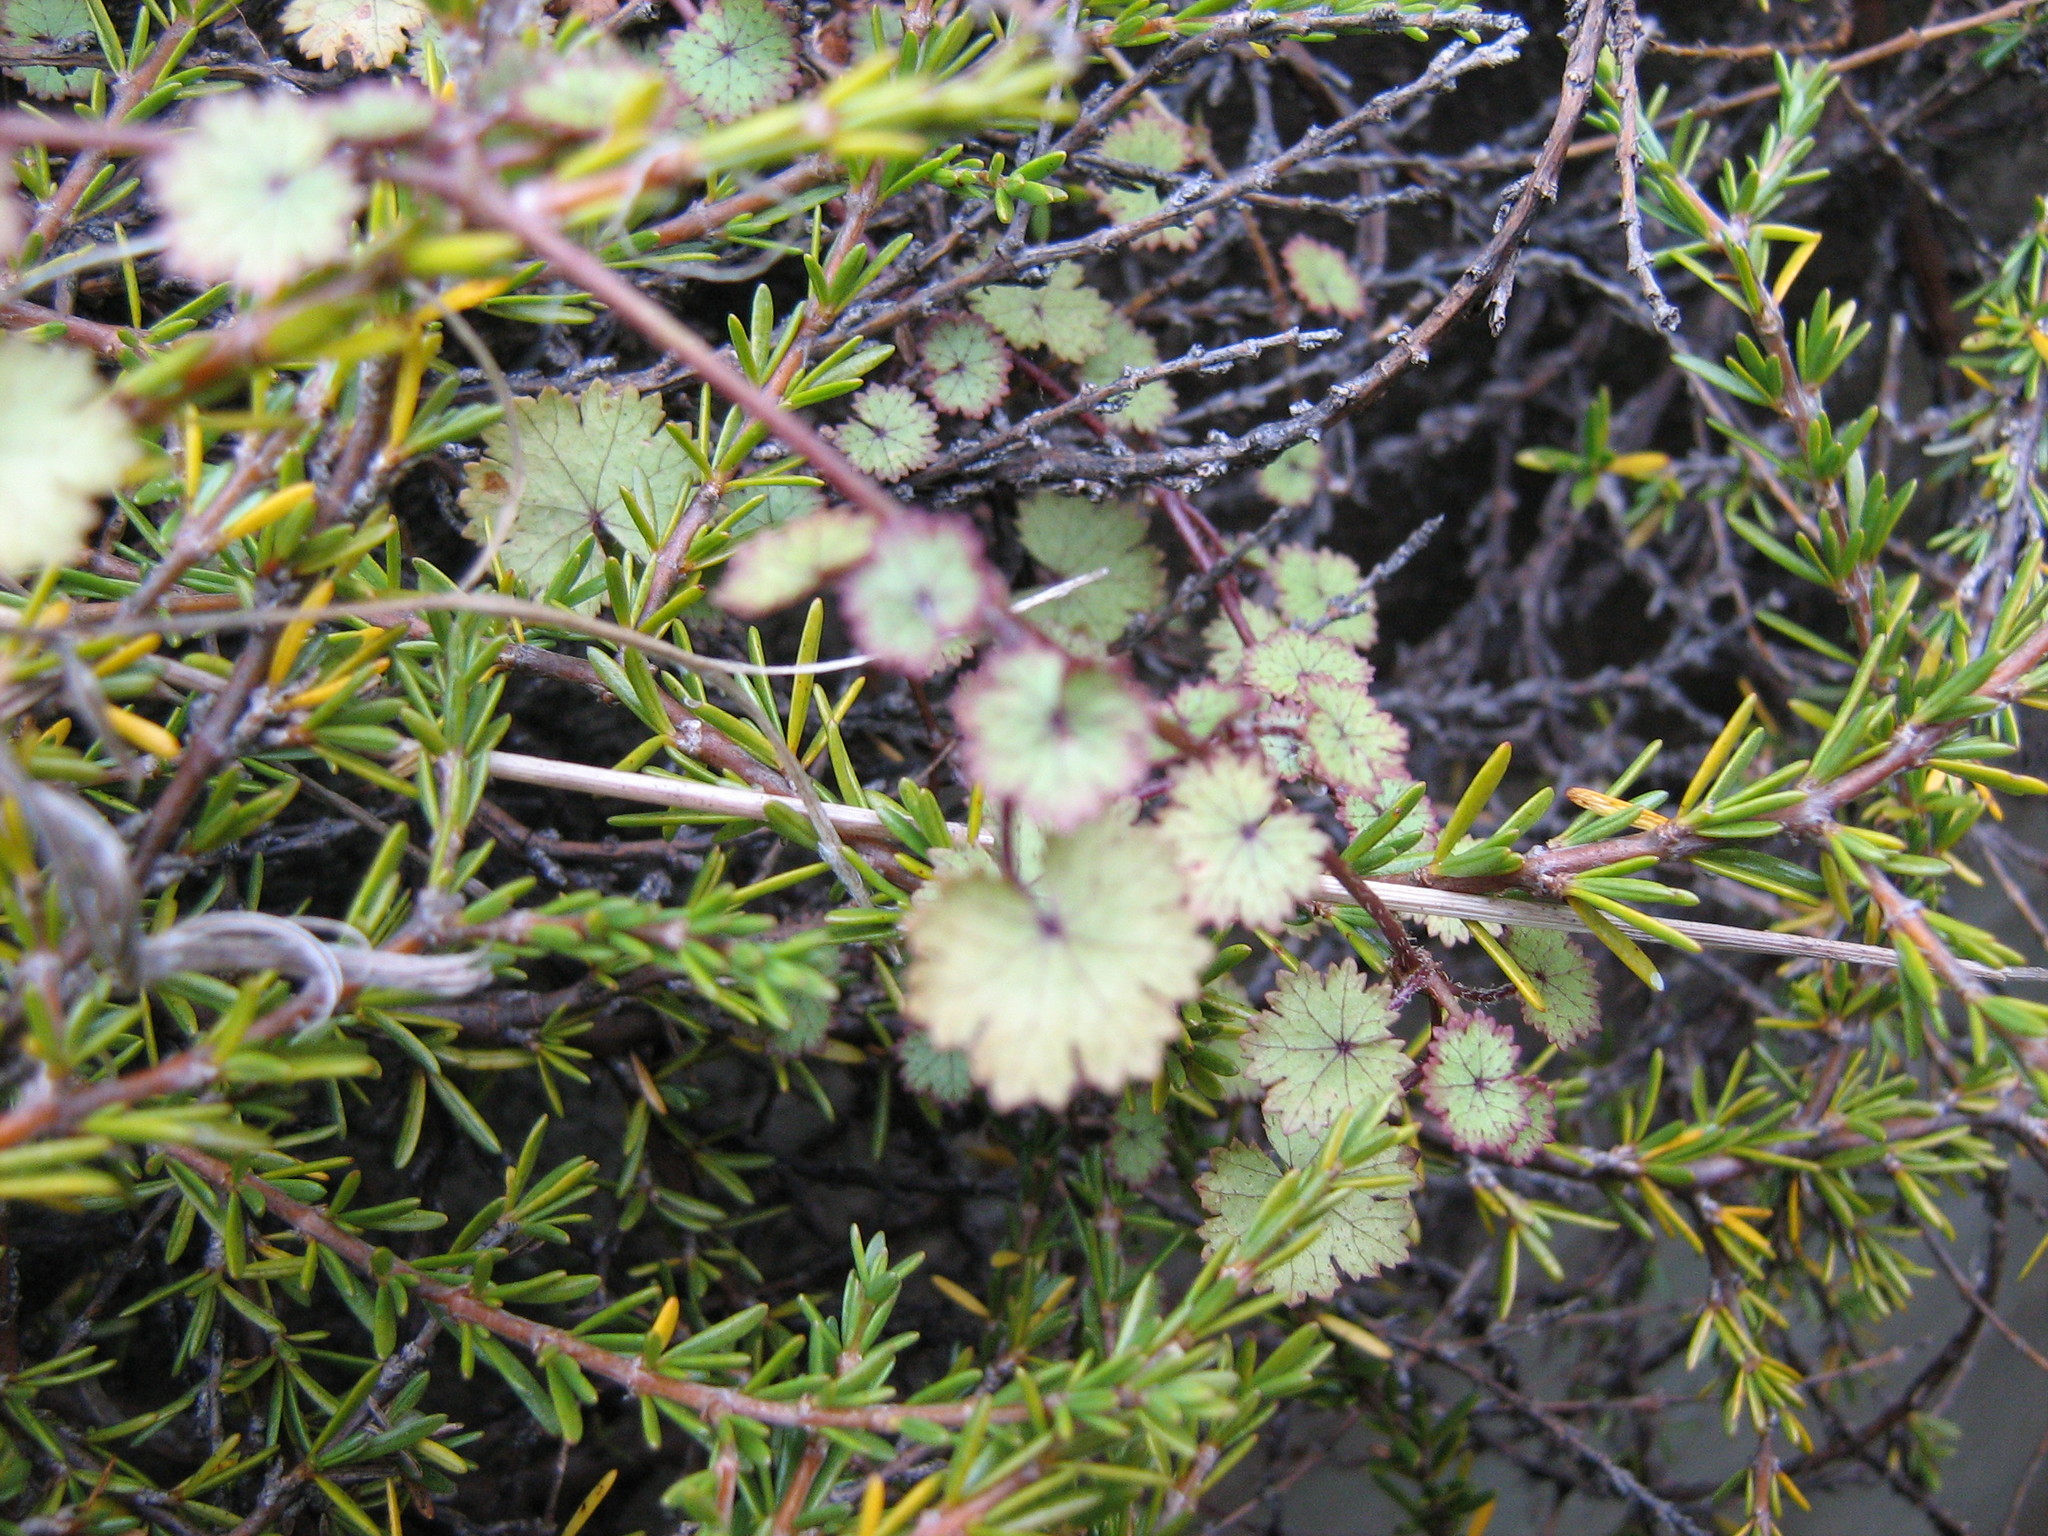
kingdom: Plantae
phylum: Tracheophyta
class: Magnoliopsida
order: Apiales
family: Araliaceae
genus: Hydrocotyle
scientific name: Hydrocotyle moschata
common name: Hairy pennywort
